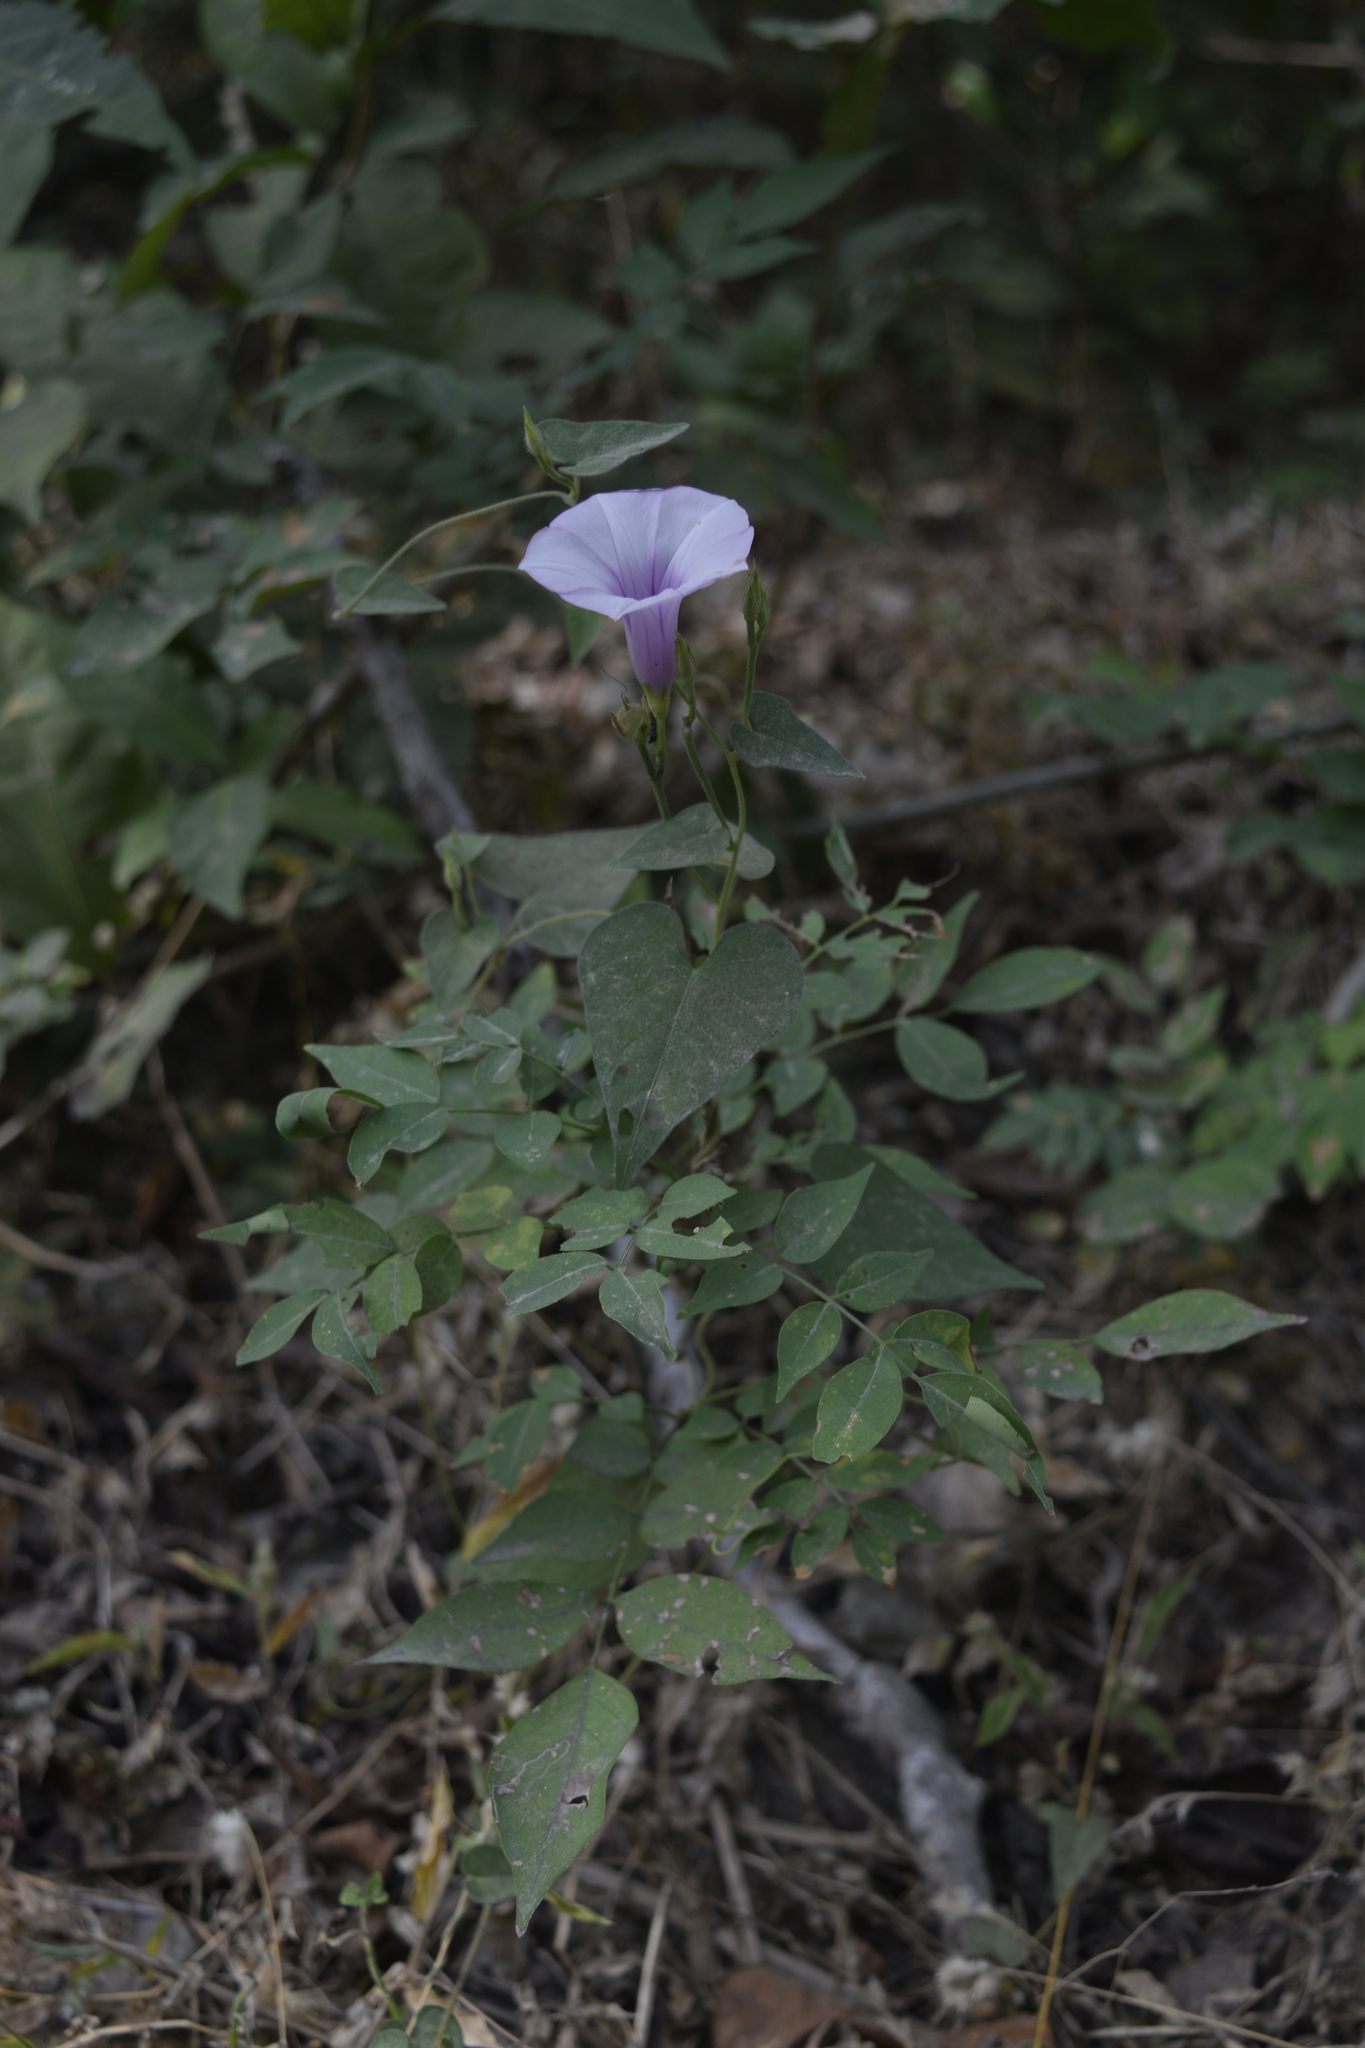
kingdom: Plantae
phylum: Tracheophyta
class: Magnoliopsida
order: Solanales
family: Convolvulaceae
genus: Ipomoea
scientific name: Ipomoea trifida
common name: Cotton morningglory
